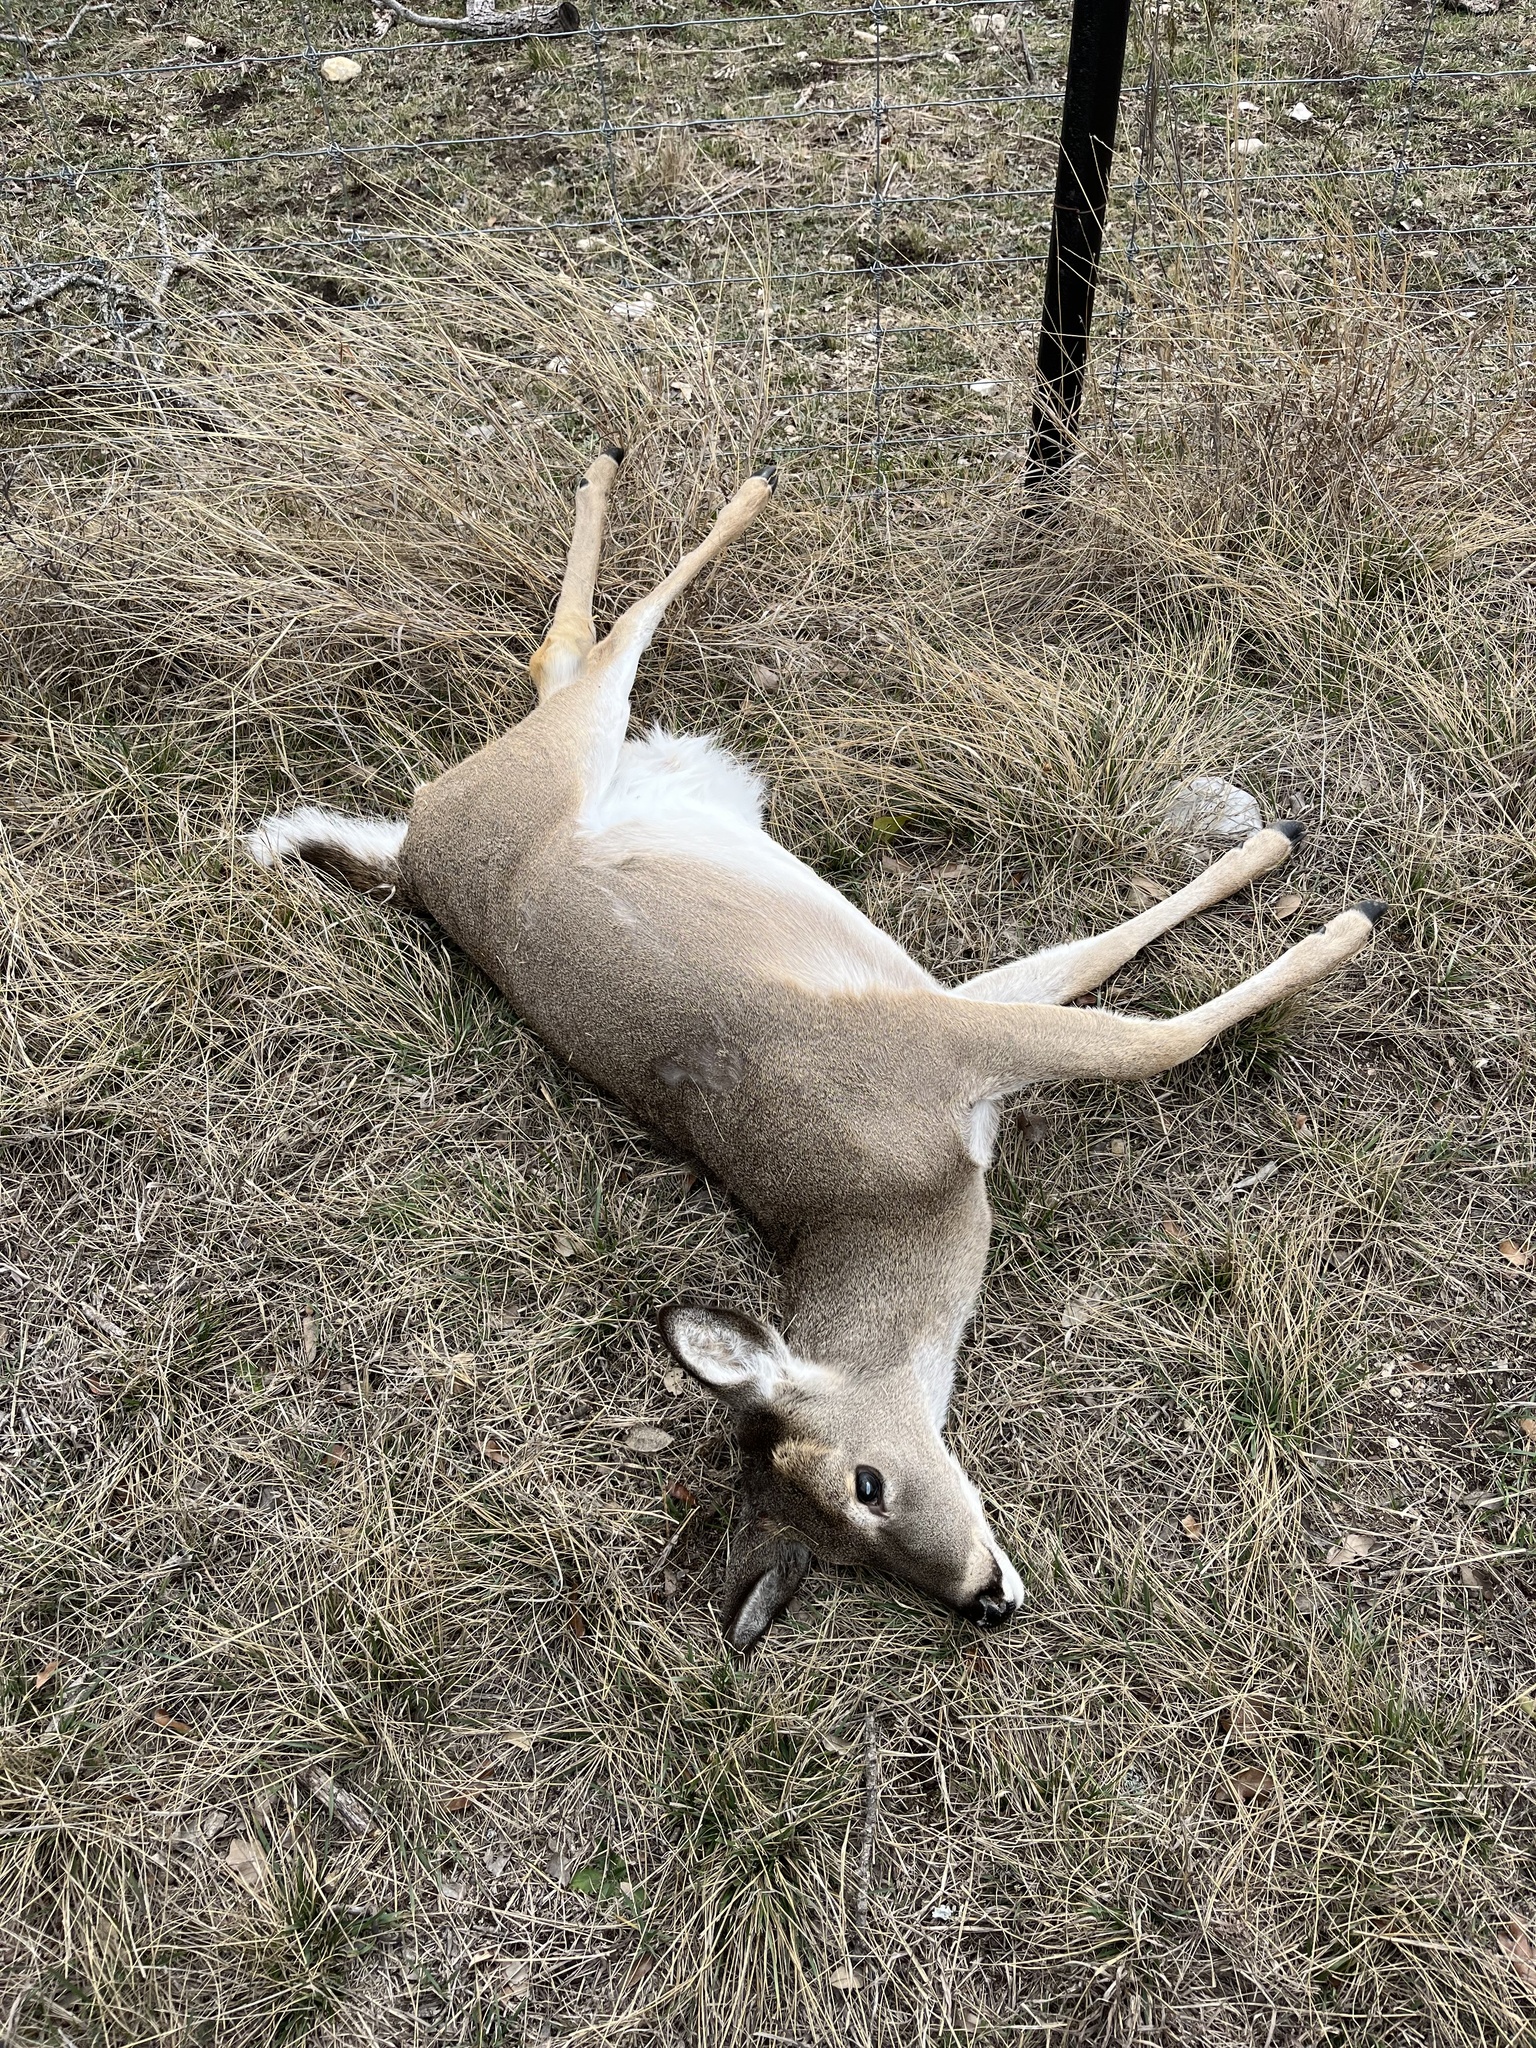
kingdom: Animalia
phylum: Chordata
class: Mammalia
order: Artiodactyla
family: Cervidae
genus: Odocoileus
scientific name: Odocoileus virginianus
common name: White-tailed deer
